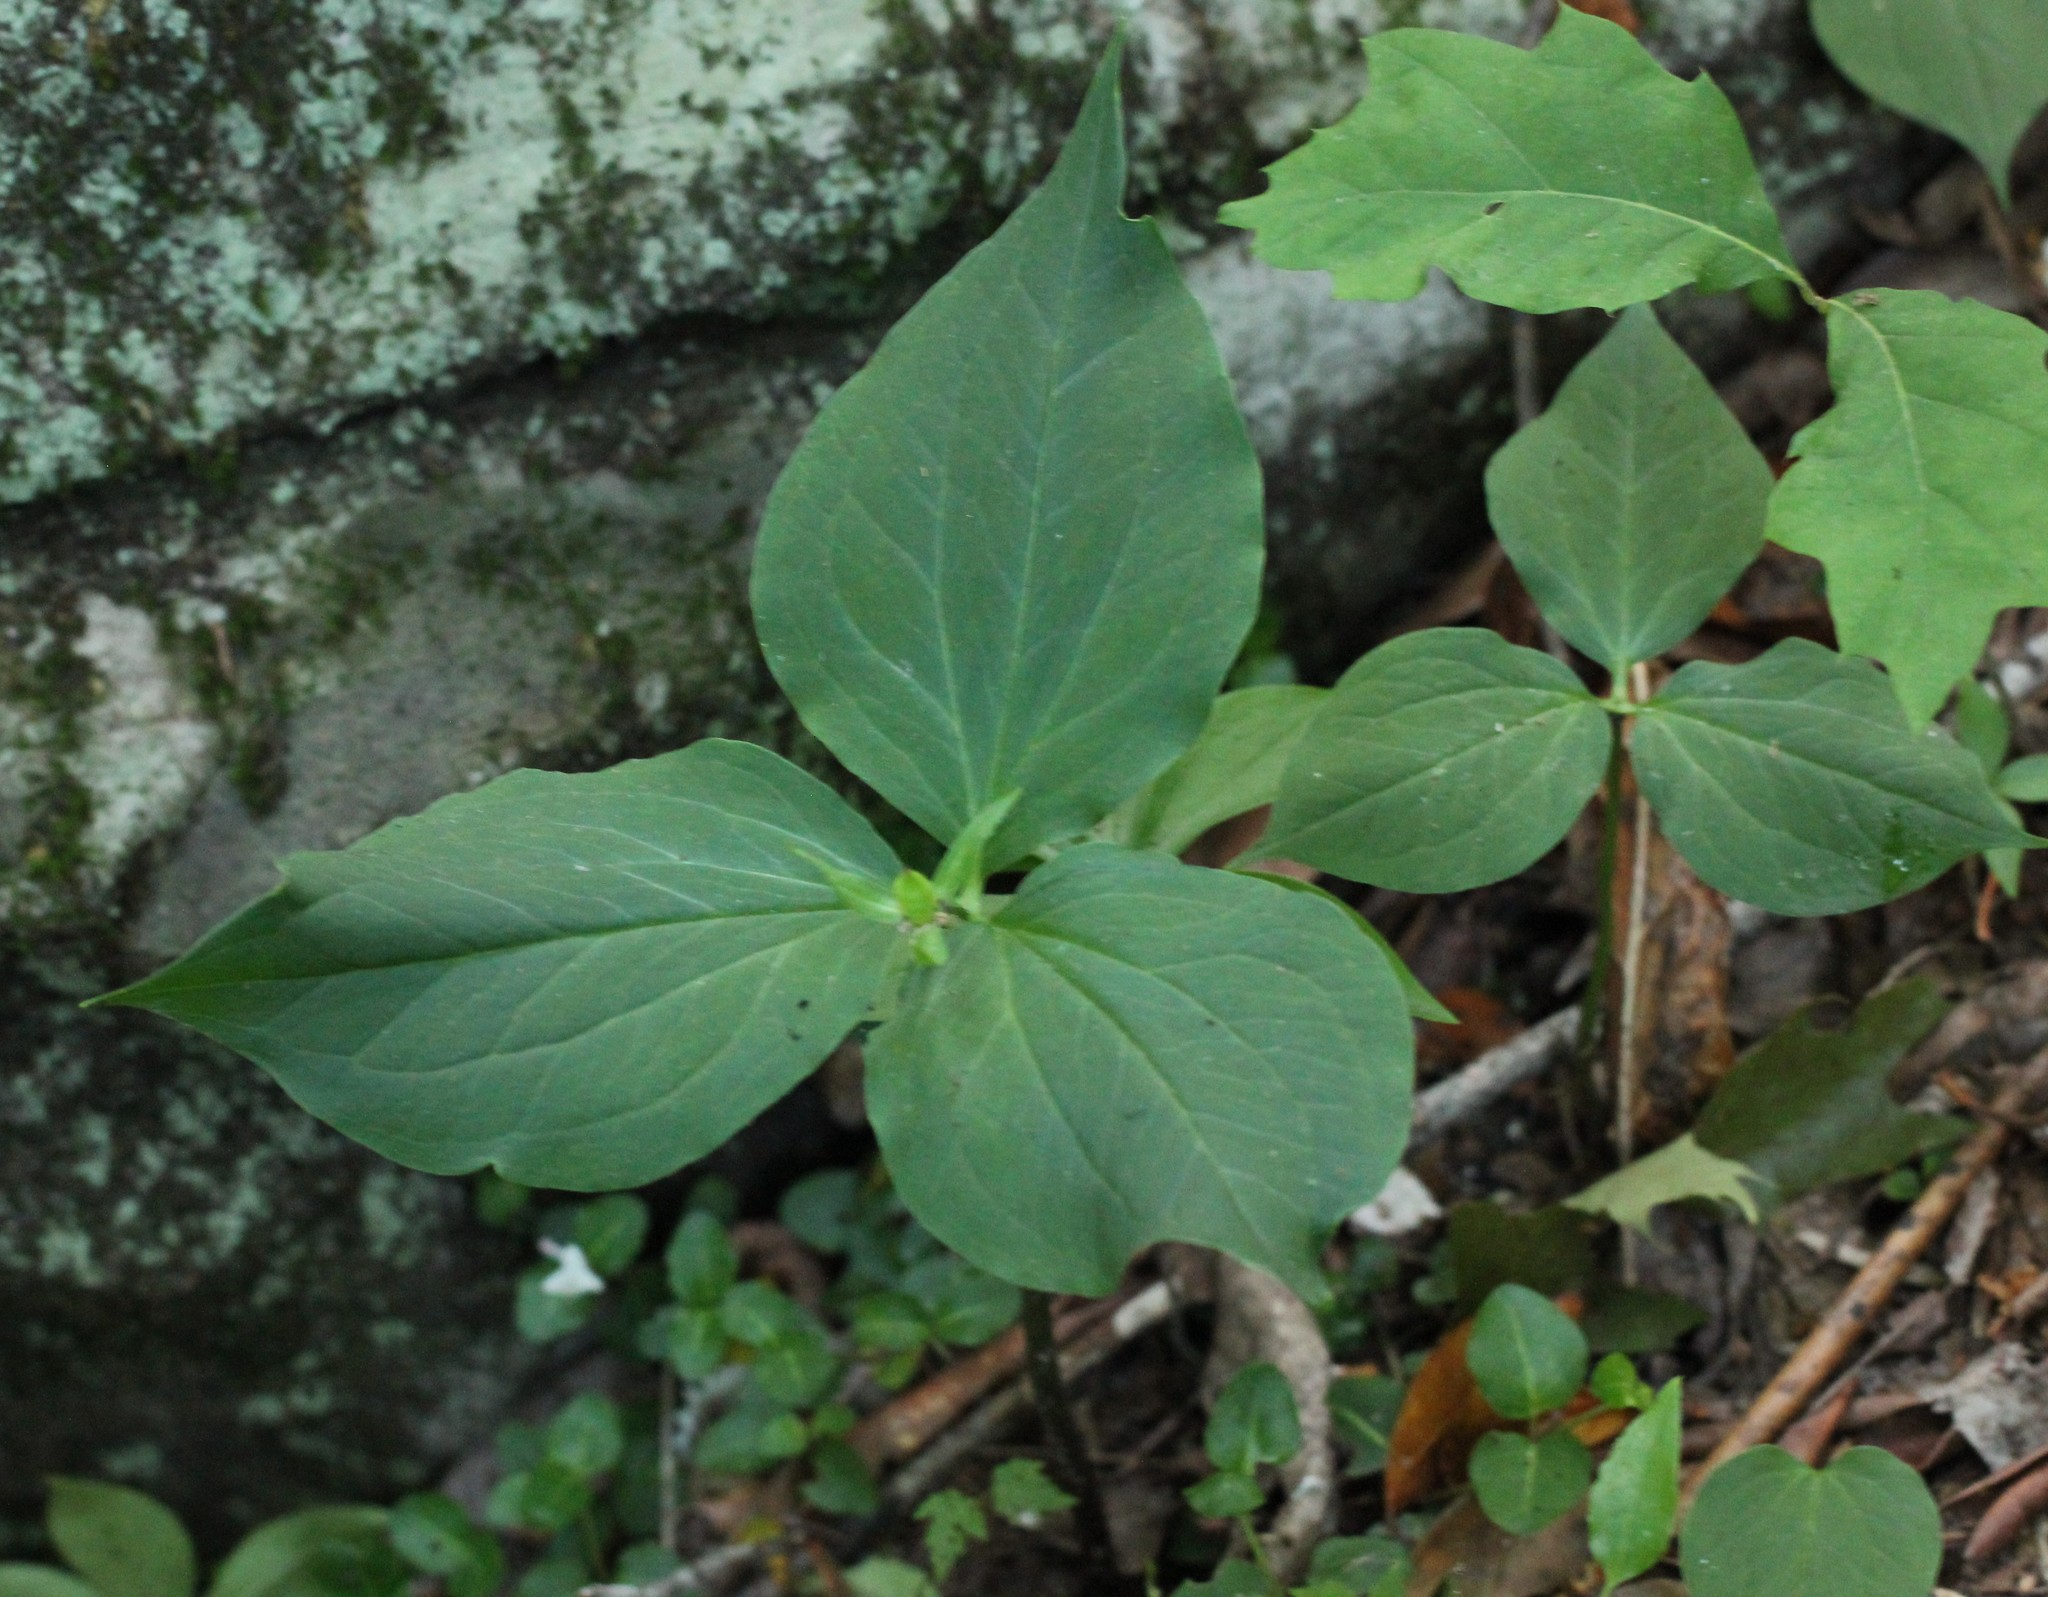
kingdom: Plantae
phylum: Tracheophyta
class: Liliopsida
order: Liliales
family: Melanthiaceae
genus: Trillium
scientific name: Trillium undulatum
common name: Paint trillium
